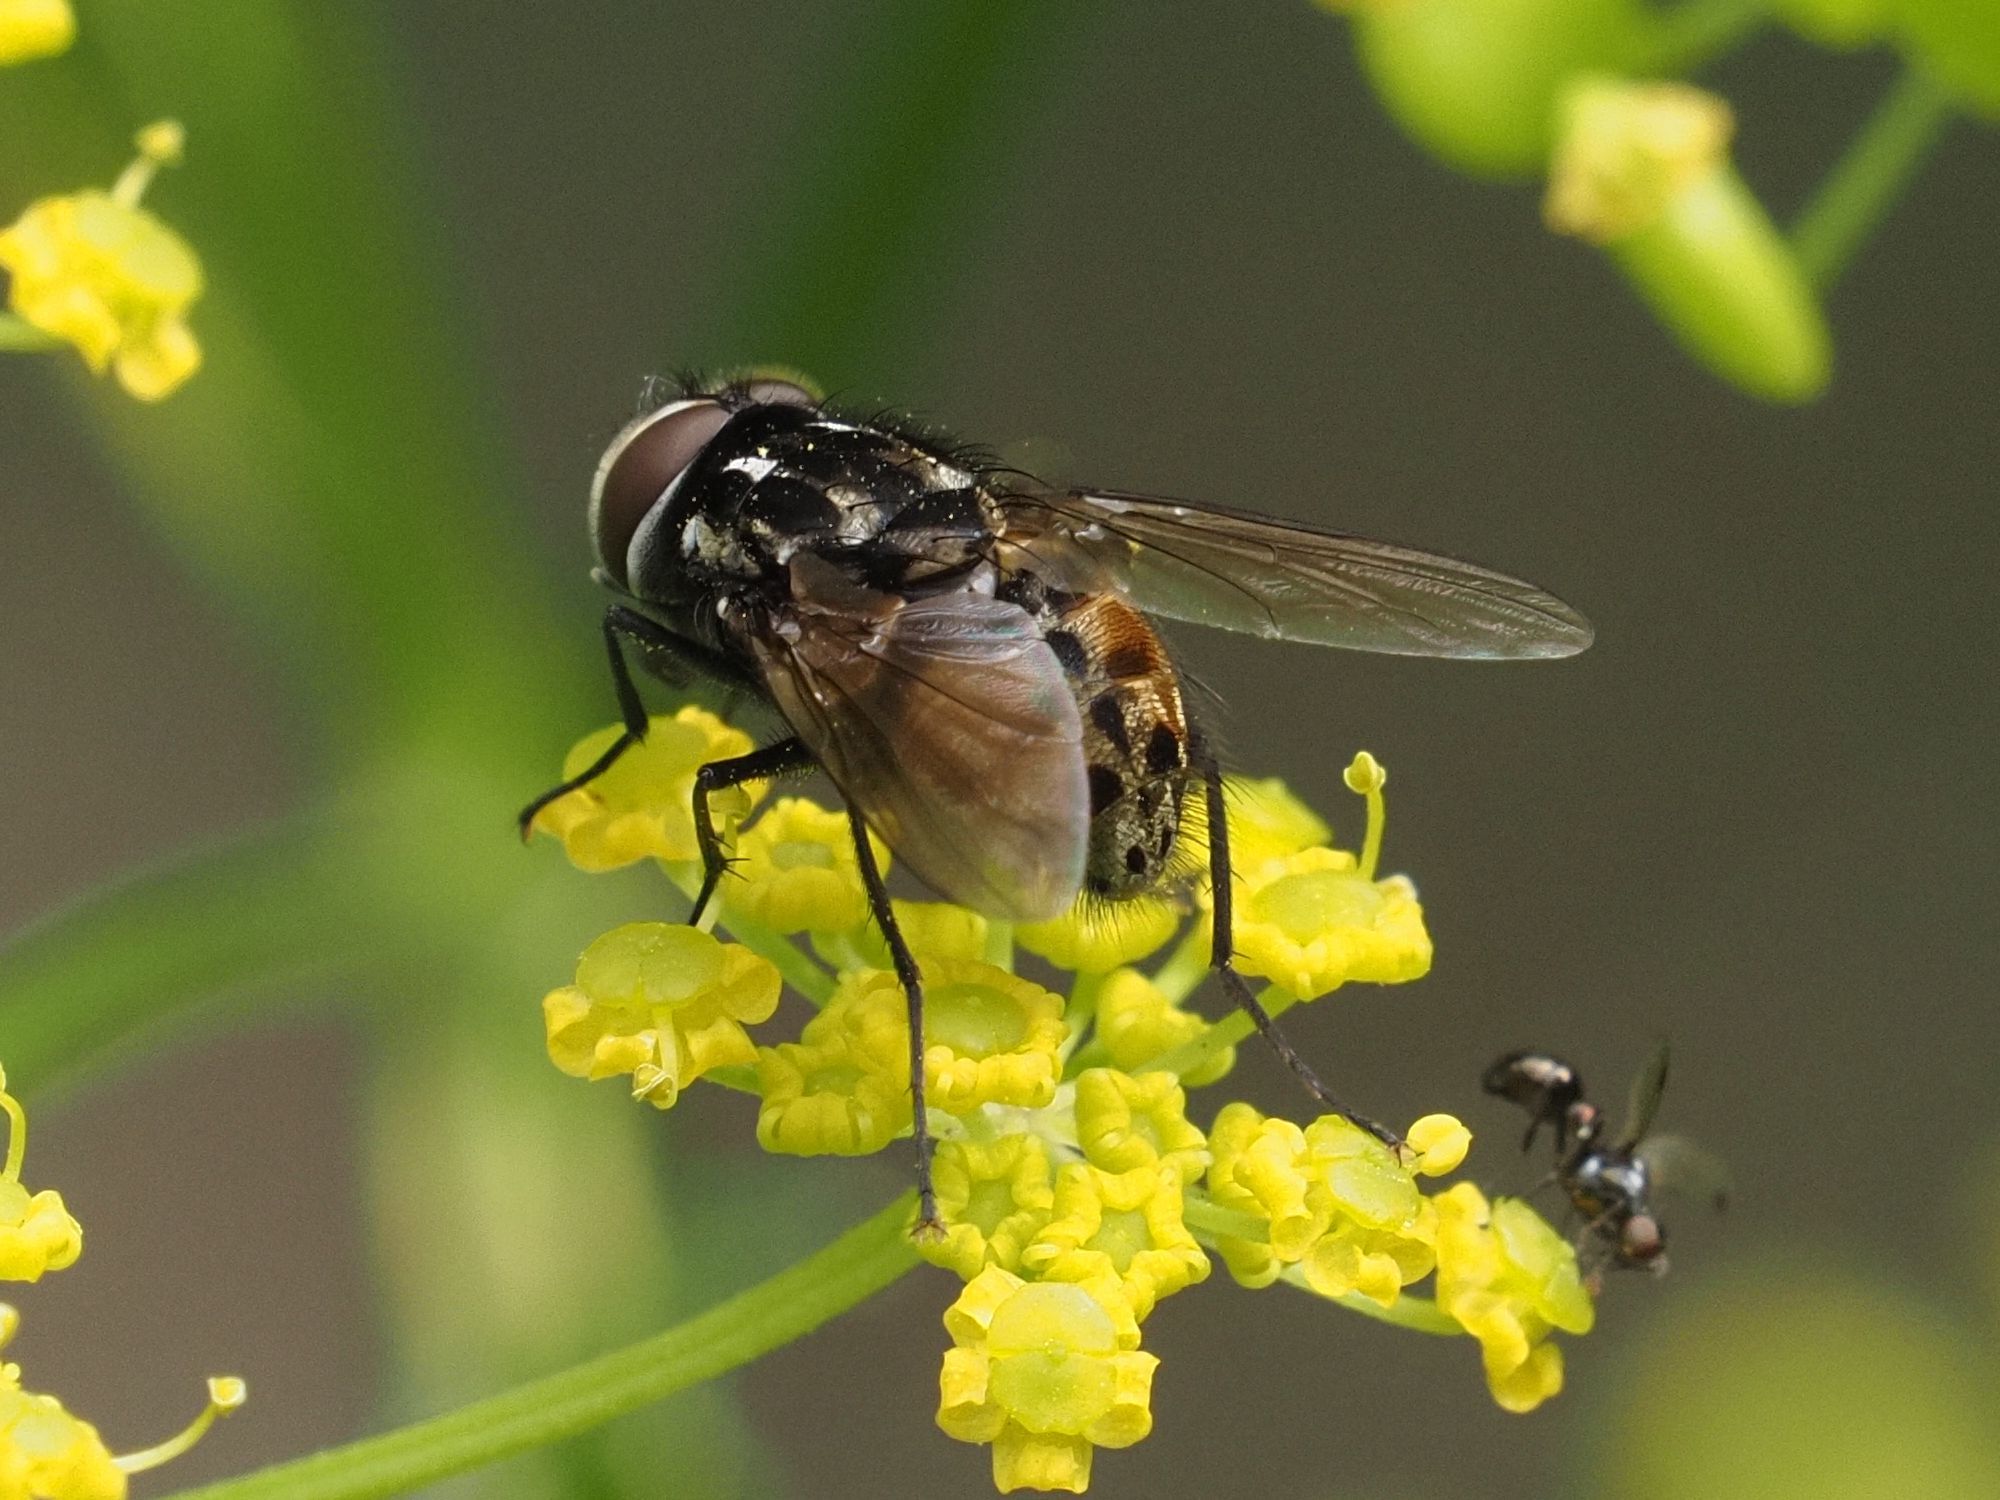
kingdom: Animalia
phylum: Arthropoda
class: Insecta
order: Diptera
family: Muscidae
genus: Graphomya
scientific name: Graphomya maculata
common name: Muscid fly
